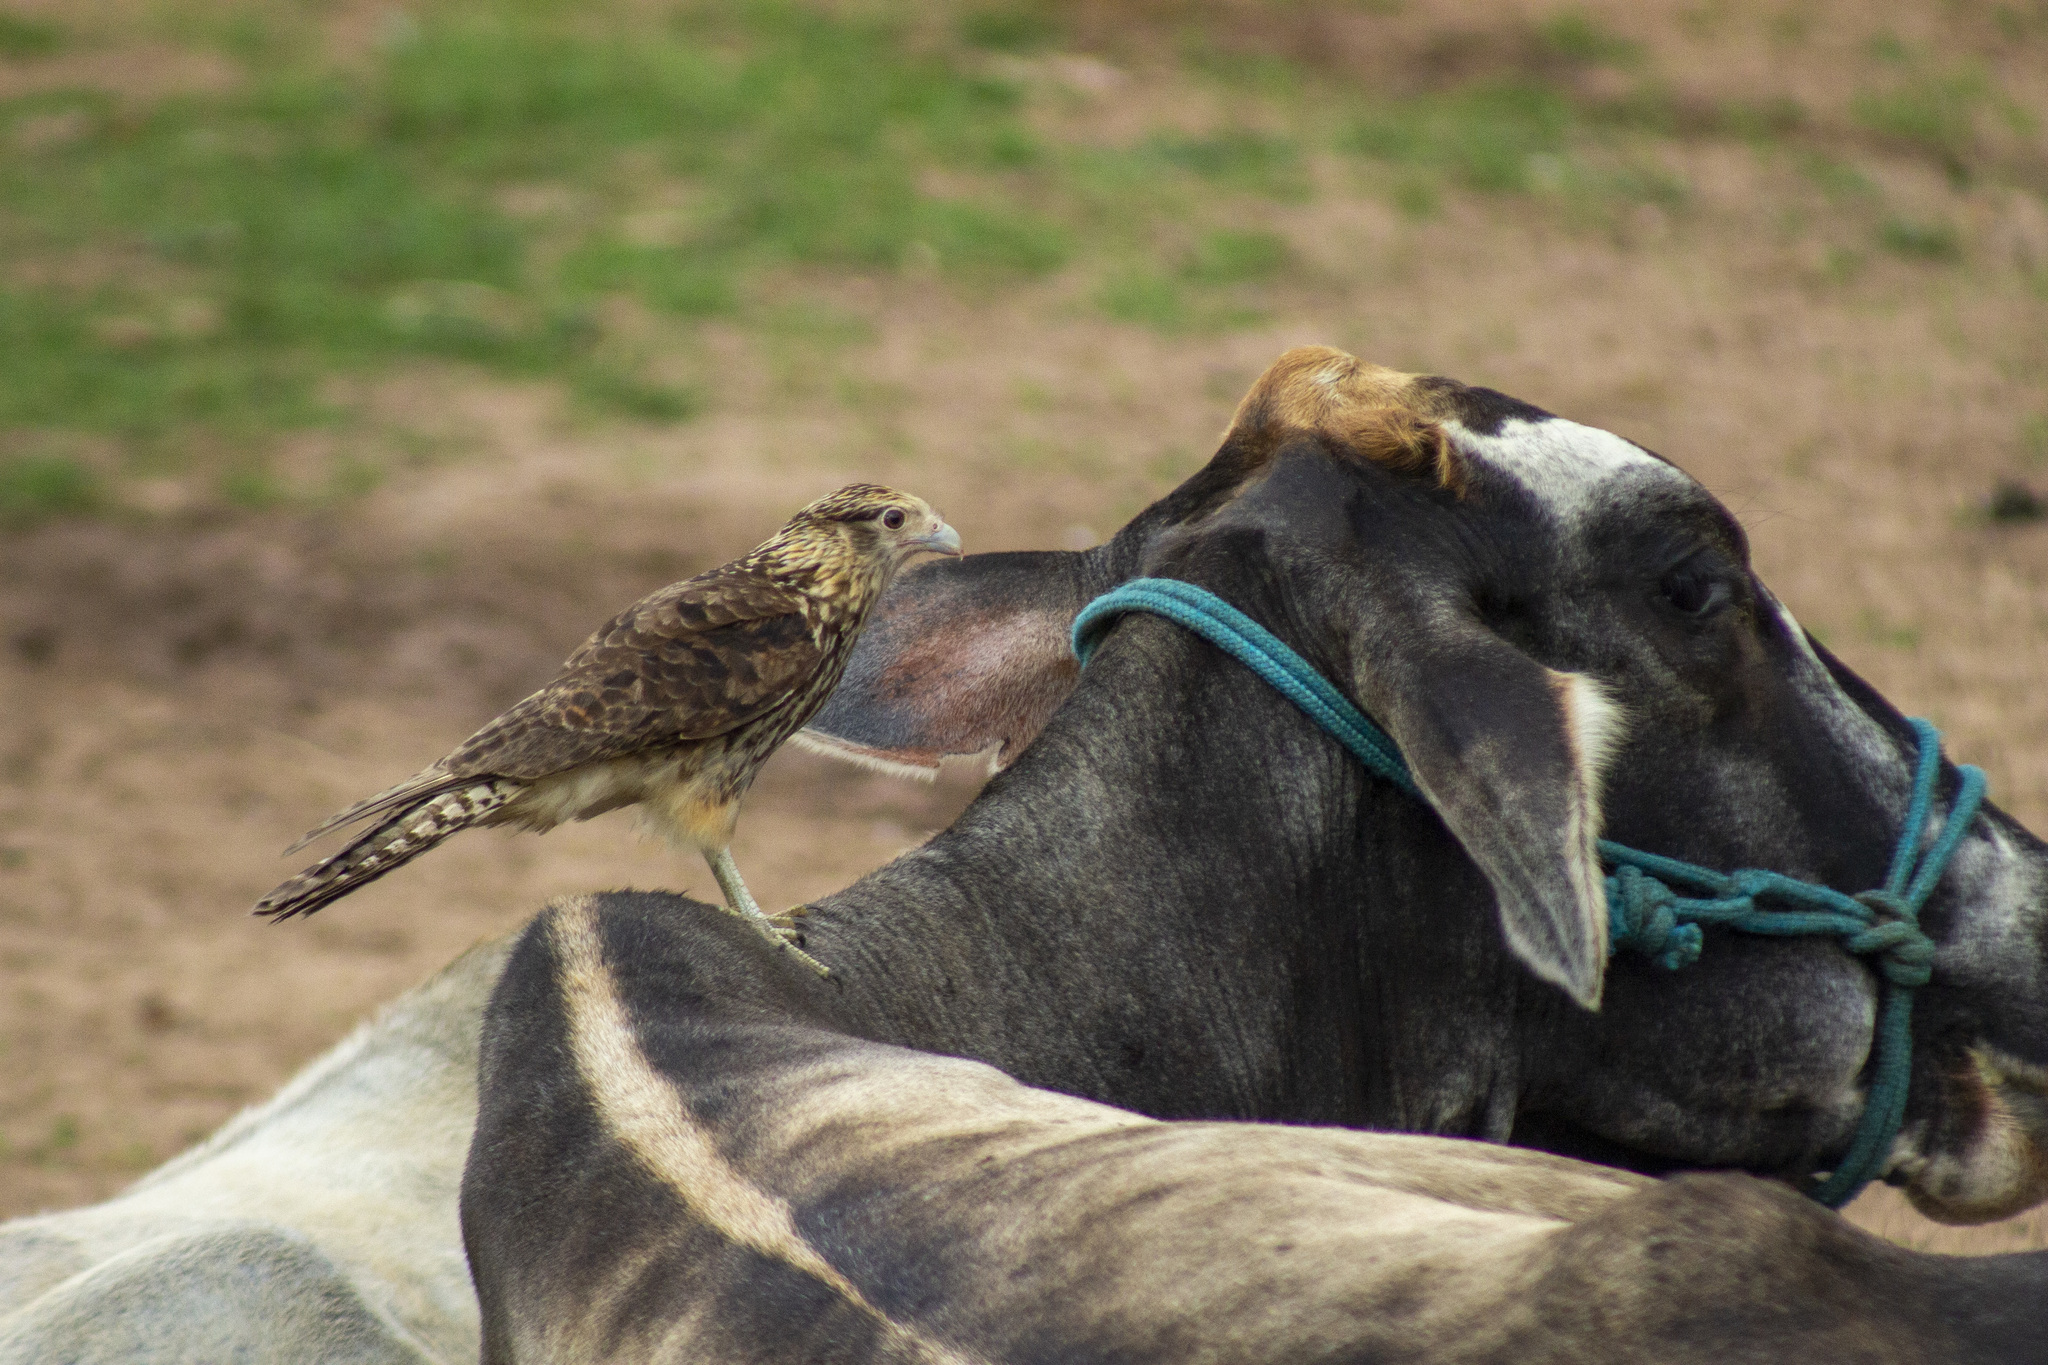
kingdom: Animalia
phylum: Chordata
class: Aves
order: Falconiformes
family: Falconidae
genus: Daptrius
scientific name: Daptrius
